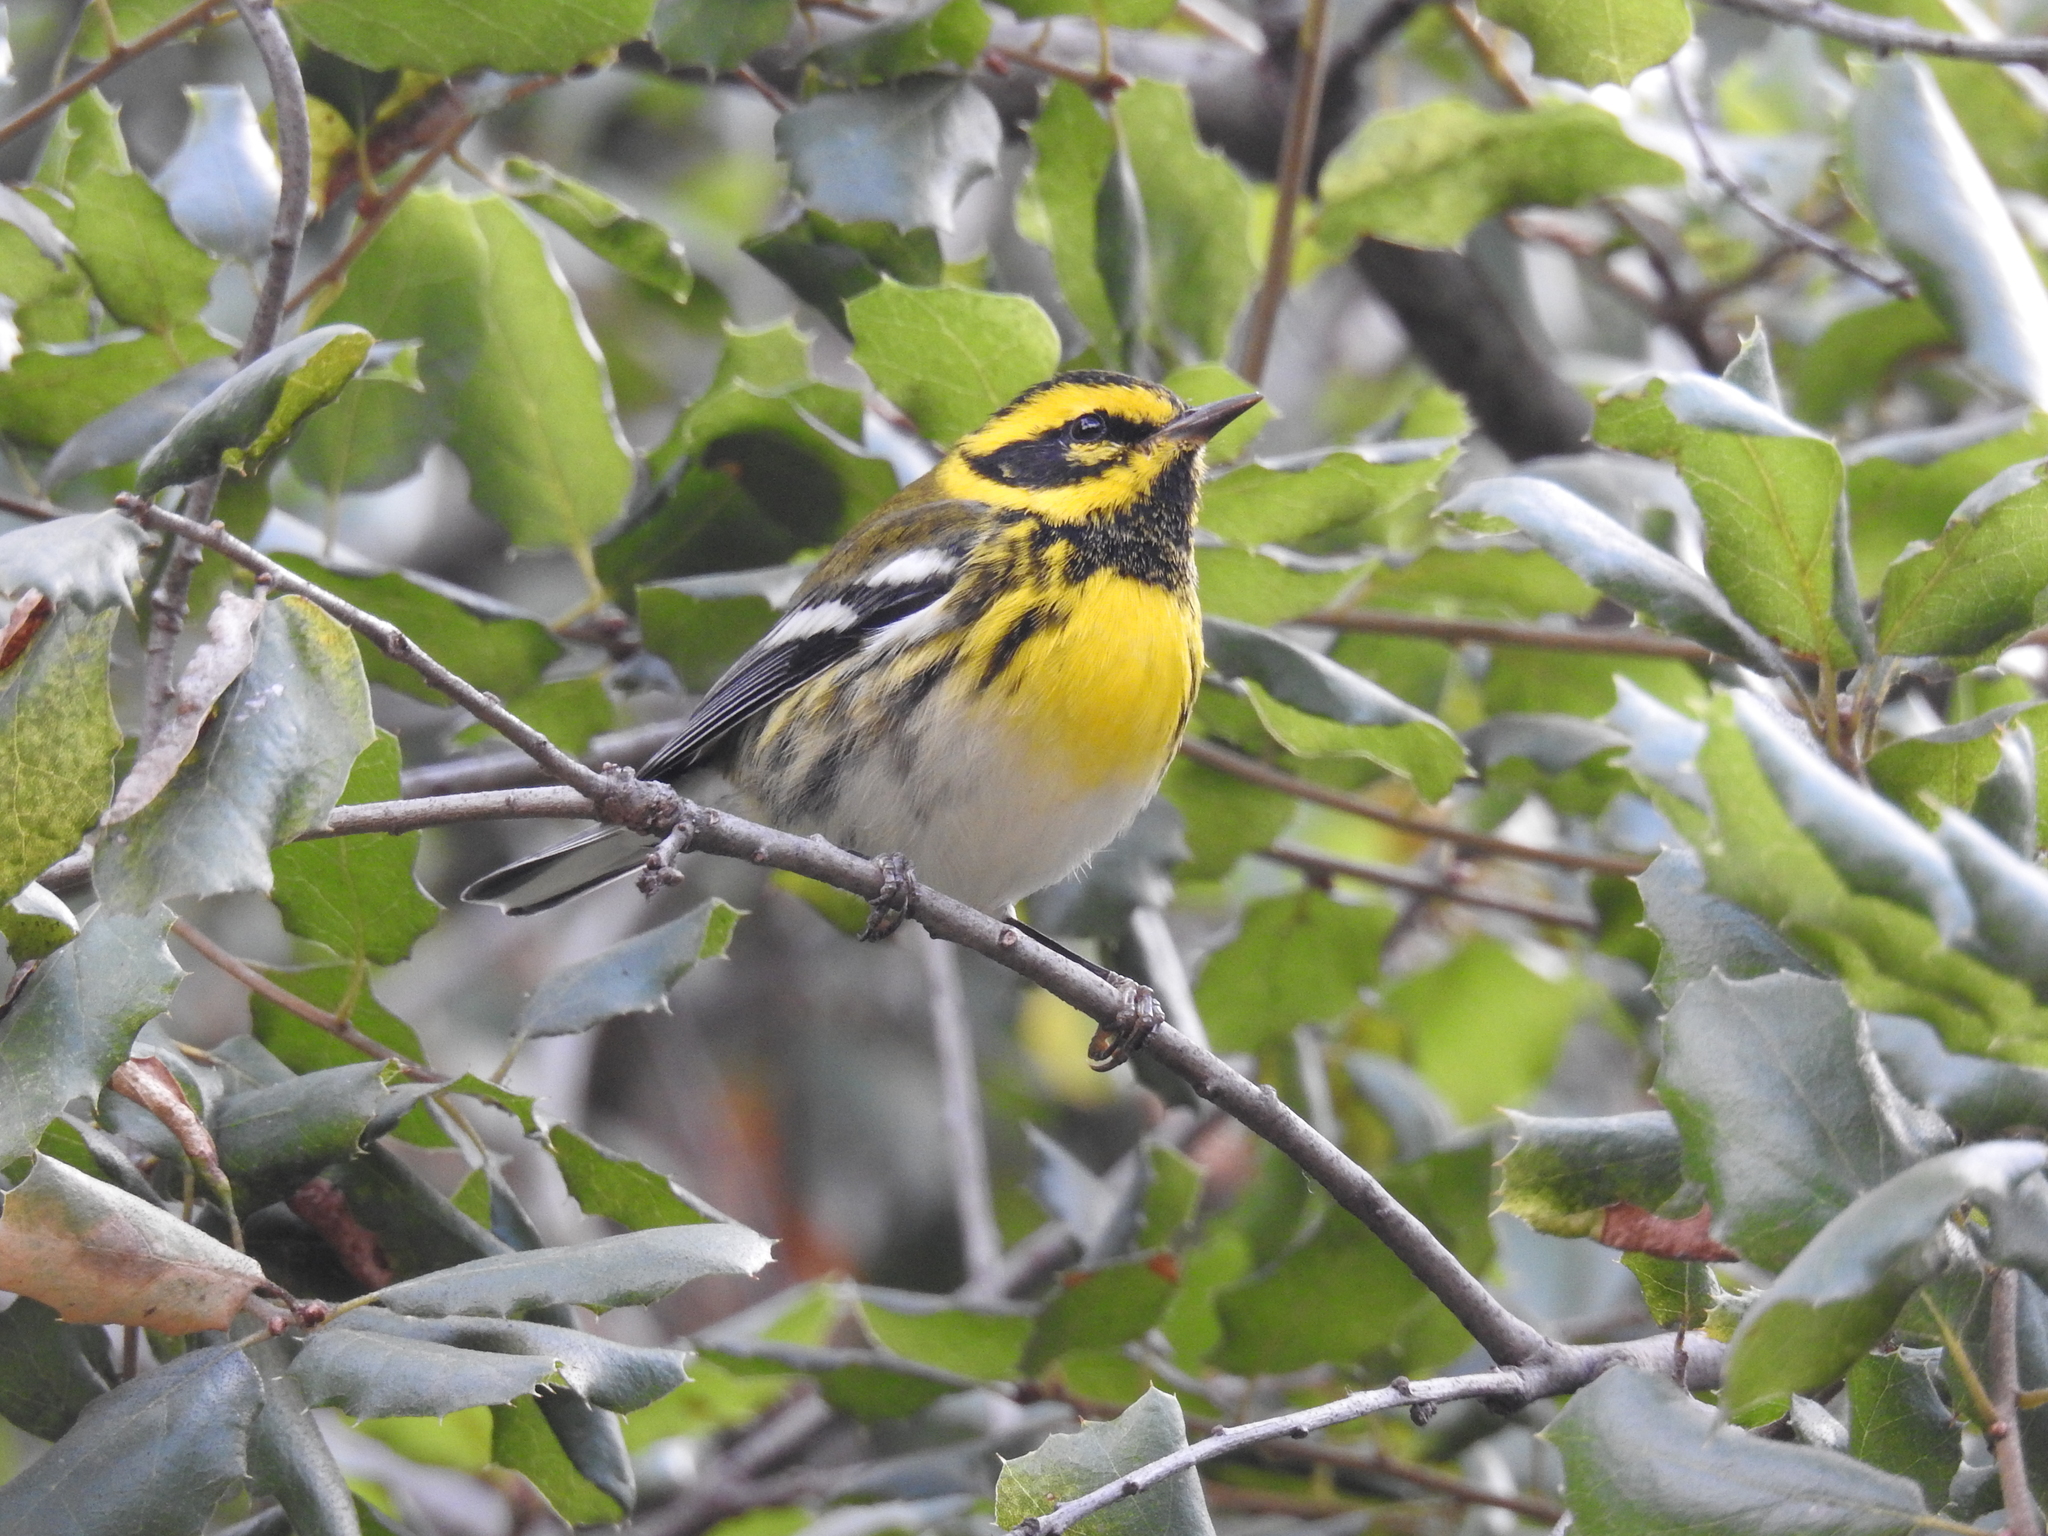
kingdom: Animalia
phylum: Chordata
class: Aves
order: Passeriformes
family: Parulidae
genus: Setophaga
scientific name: Setophaga townsendi
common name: Townsend's warbler
